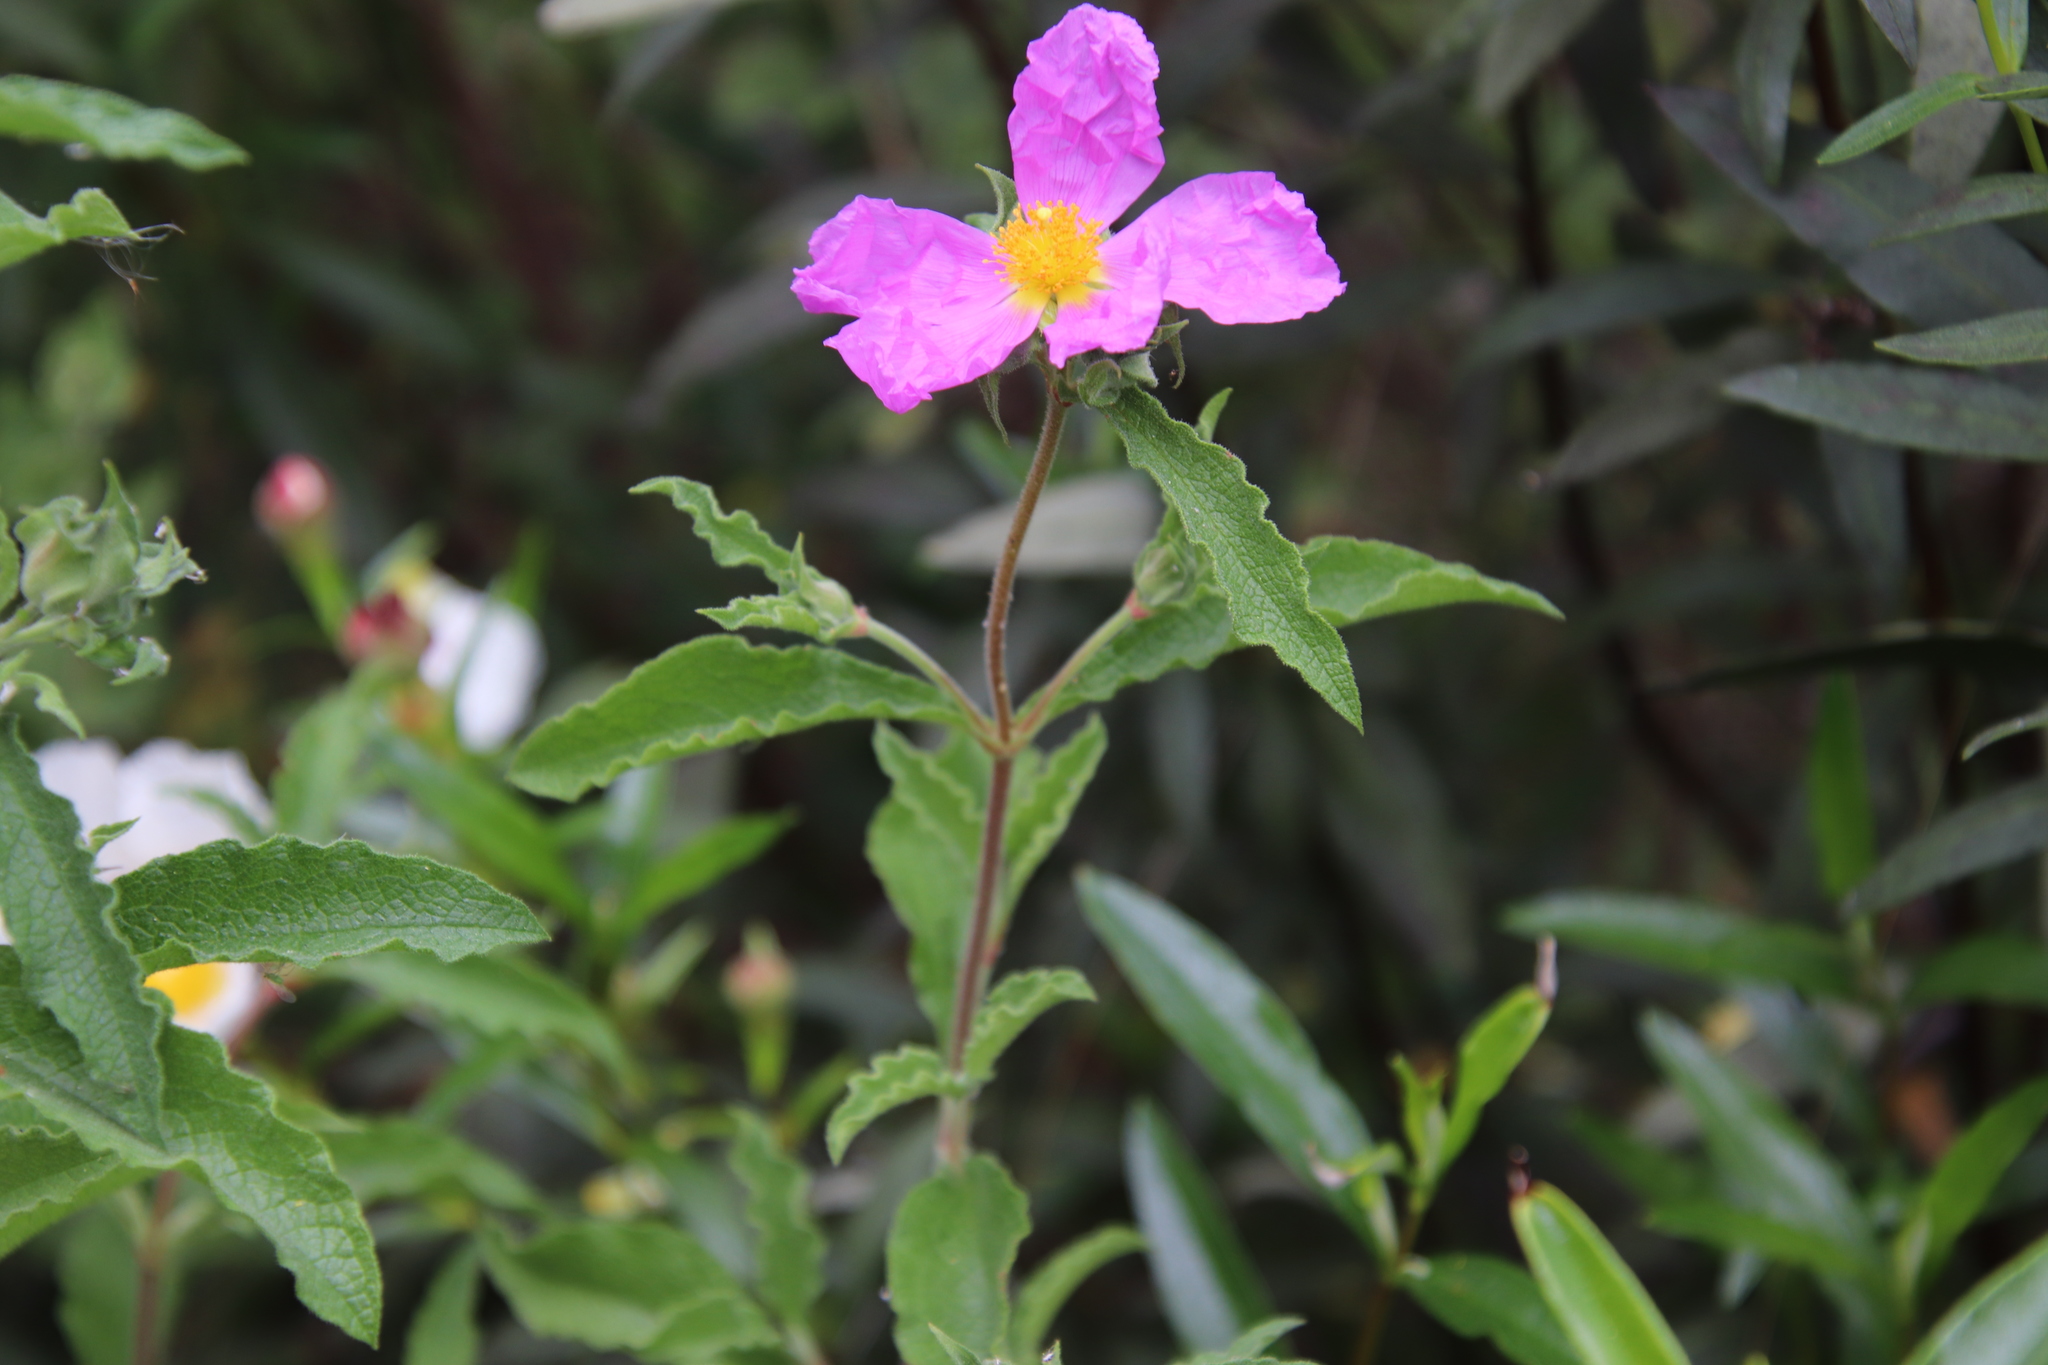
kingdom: Plantae
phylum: Tracheophyta
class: Magnoliopsida
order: Malvales
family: Cistaceae
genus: Cistus
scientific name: Cistus creticus
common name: Cretan rockrose
